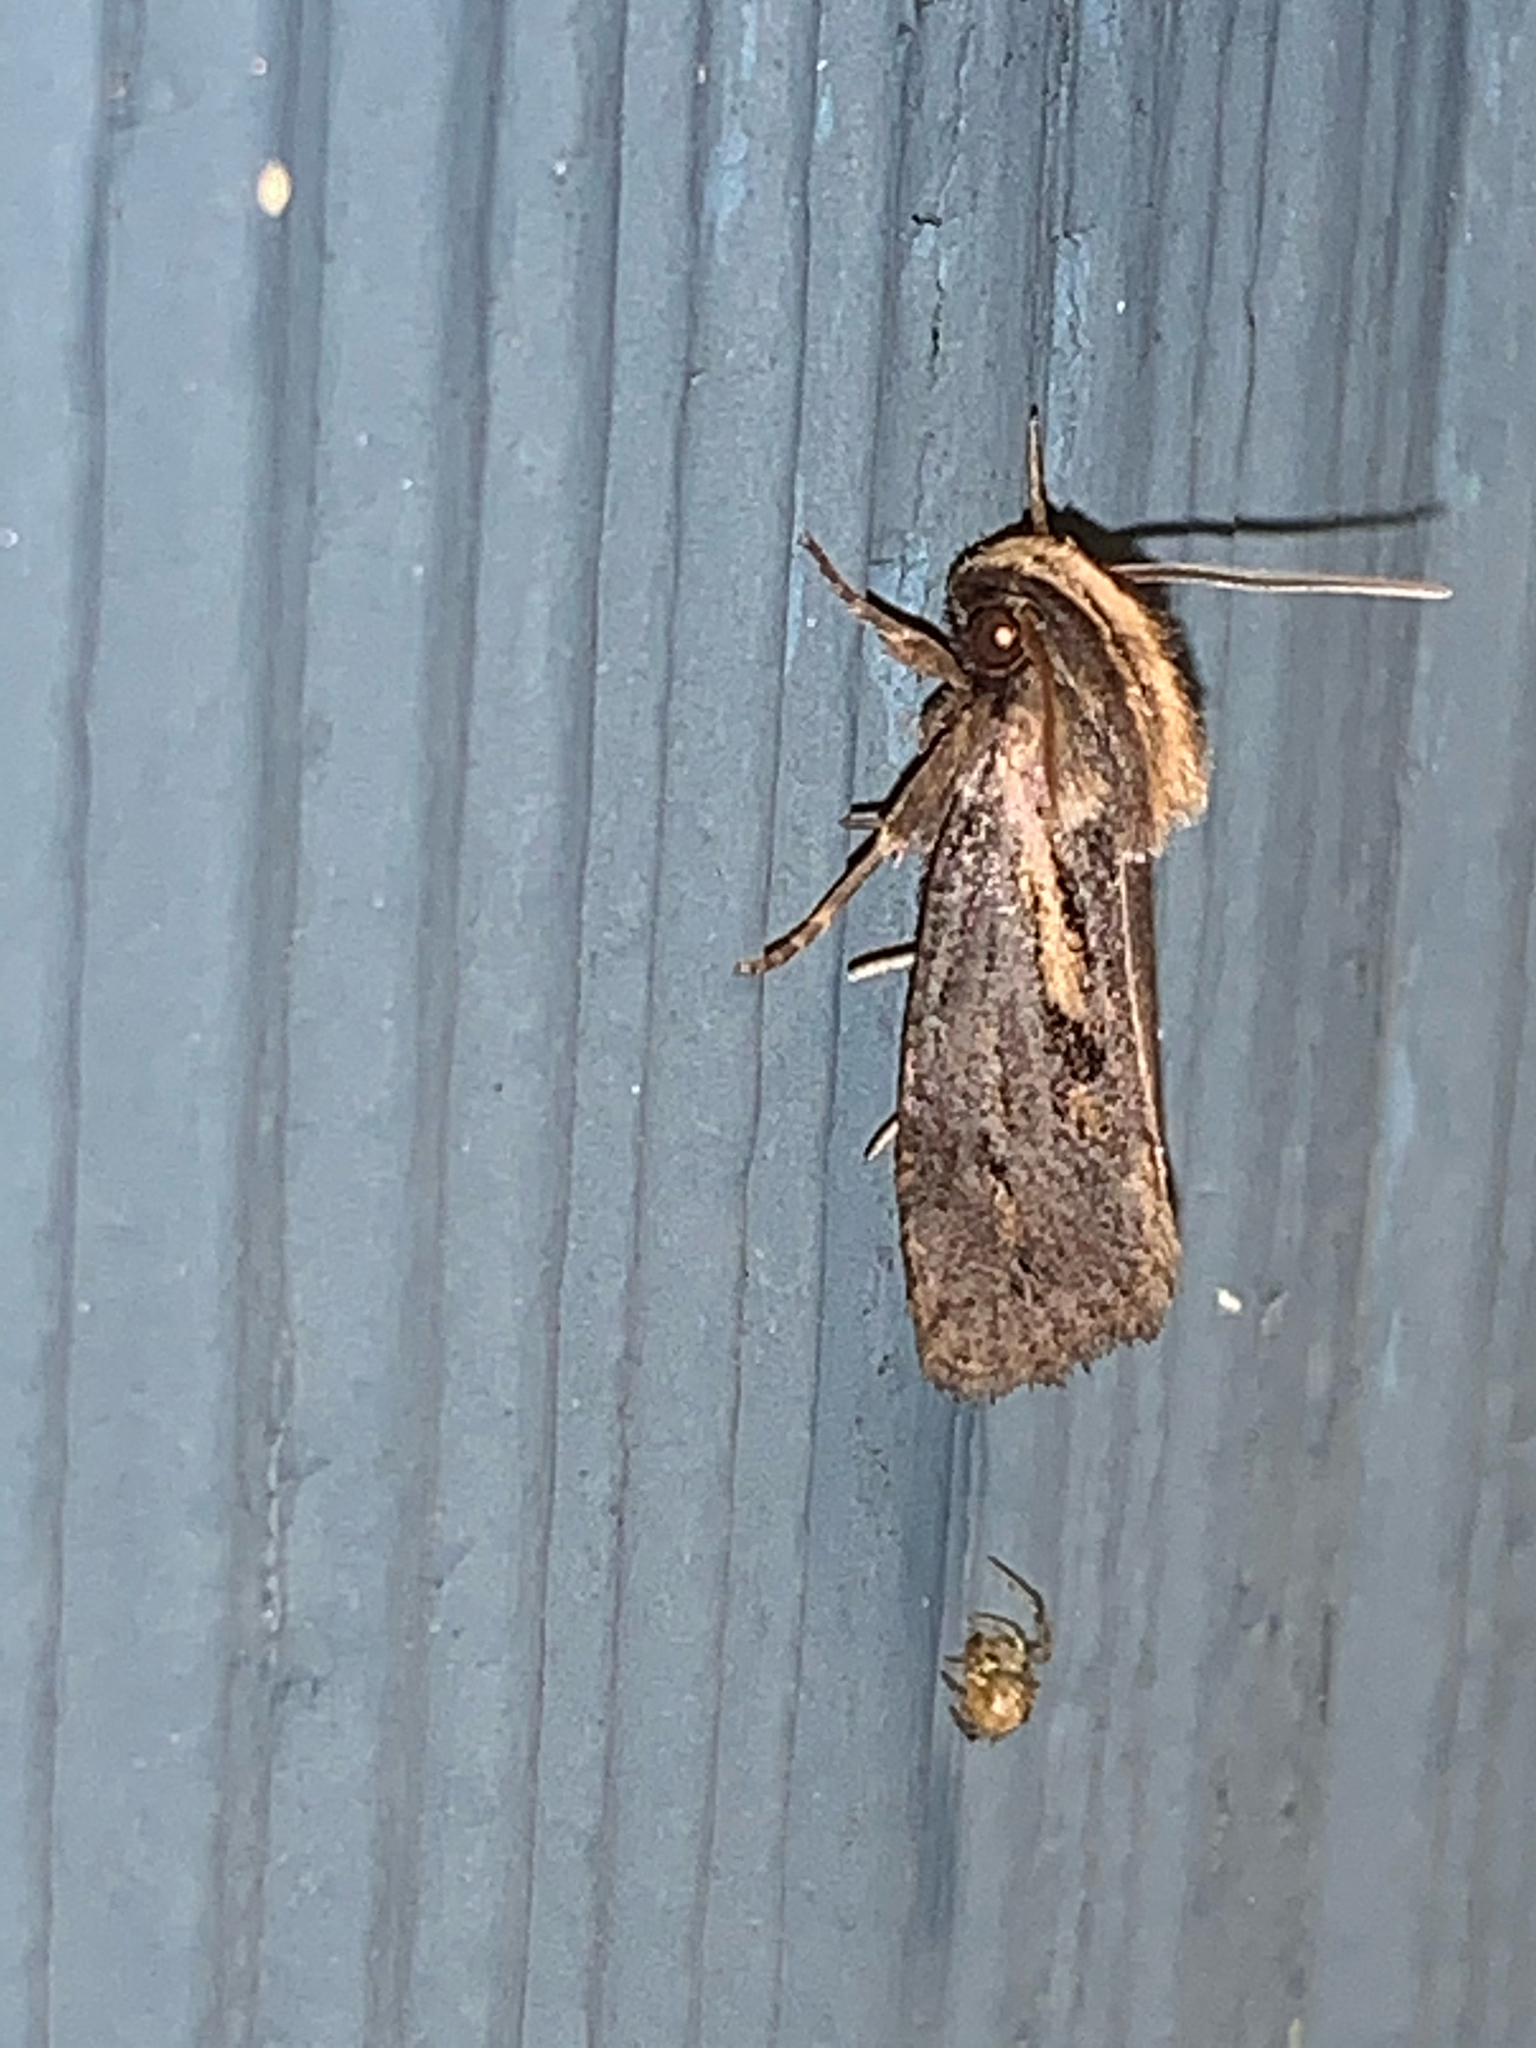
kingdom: Animalia
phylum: Arthropoda
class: Insecta
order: Lepidoptera
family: Tineidae
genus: Acrolophus
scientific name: Acrolophus popeanella
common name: Clemens' grass tubeworm moth
